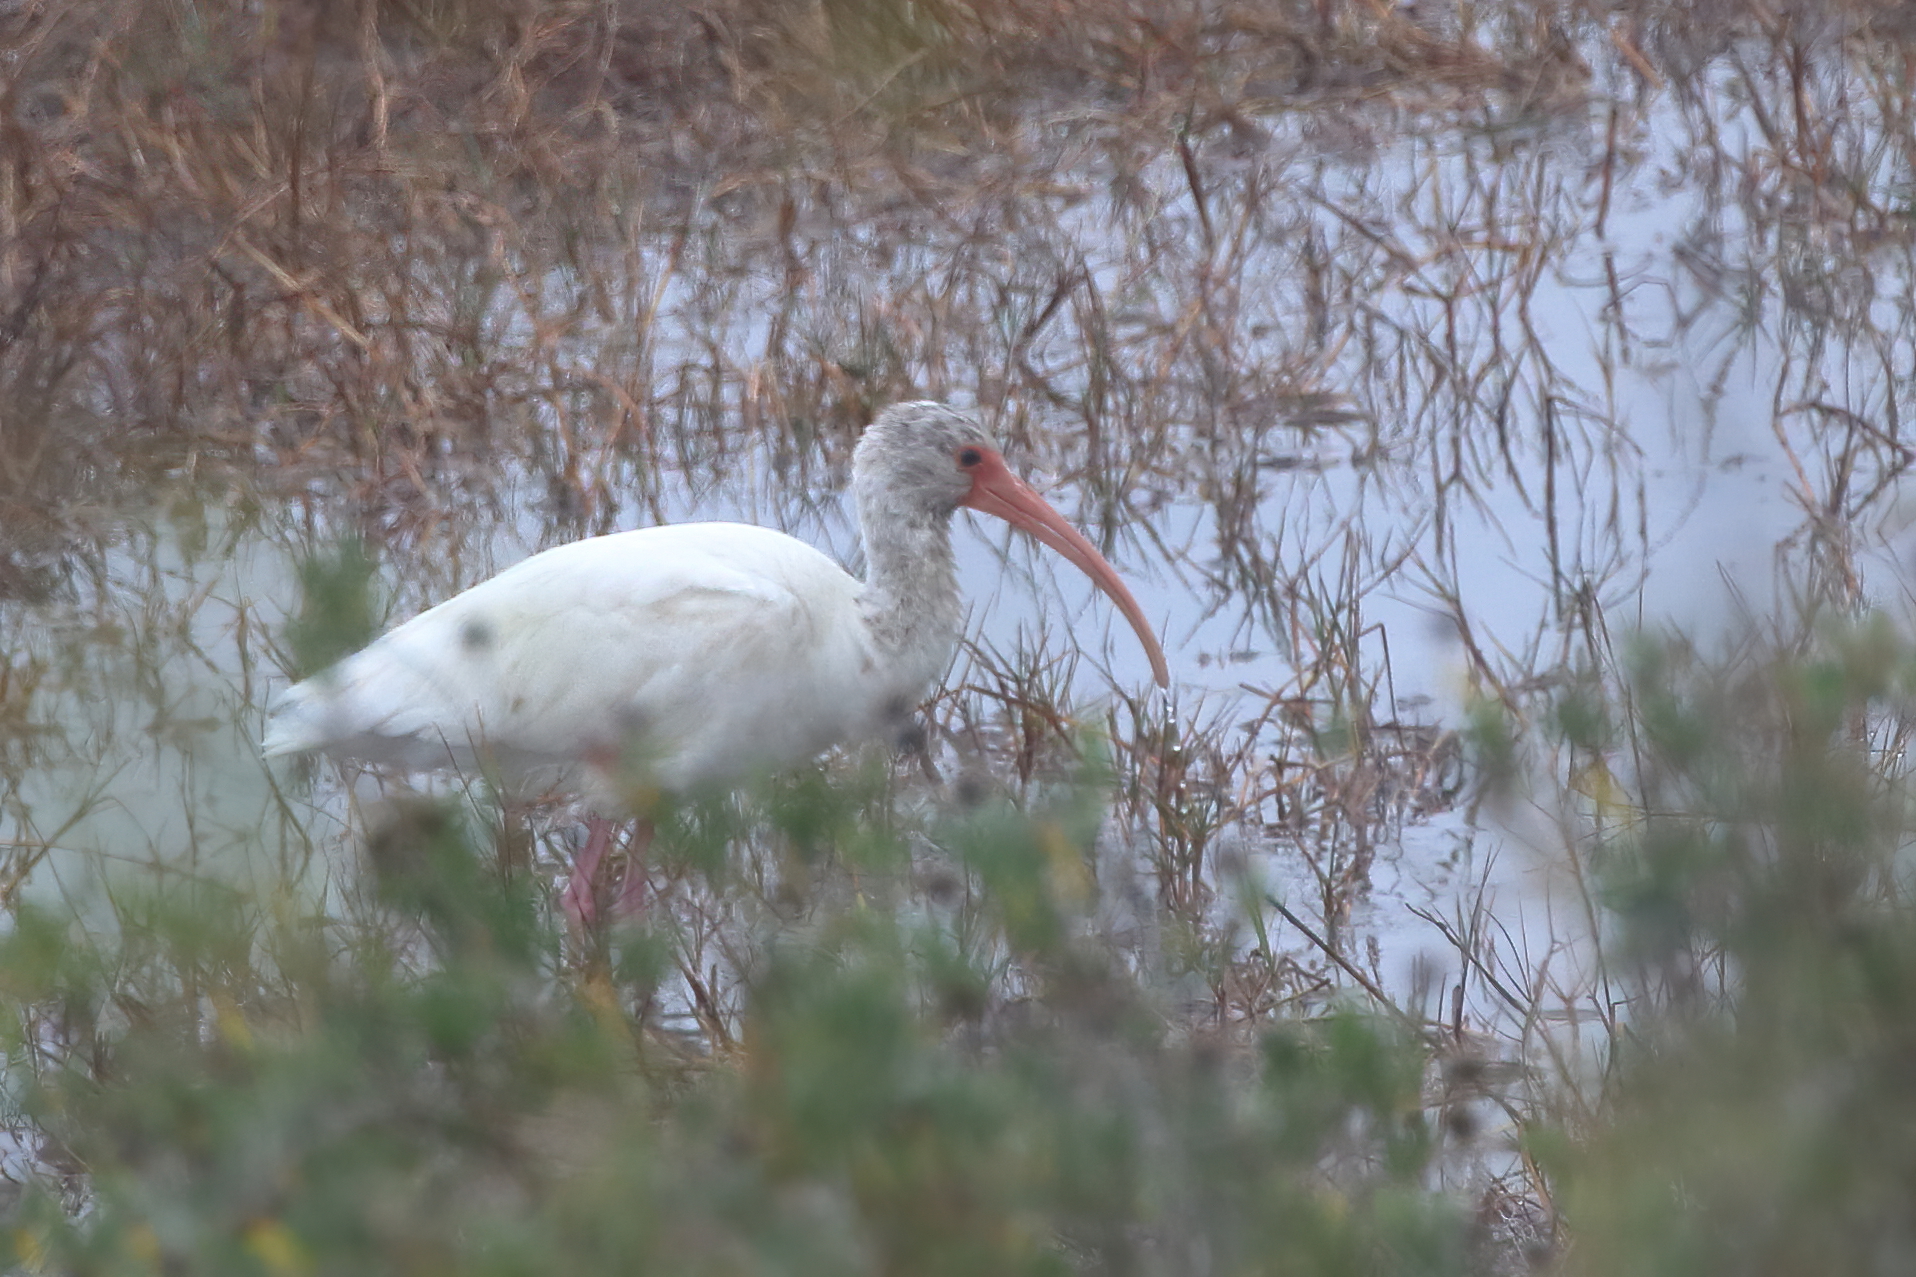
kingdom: Animalia
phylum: Chordata
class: Aves
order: Pelecaniformes
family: Threskiornithidae
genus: Eudocimus
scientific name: Eudocimus albus
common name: White ibis
